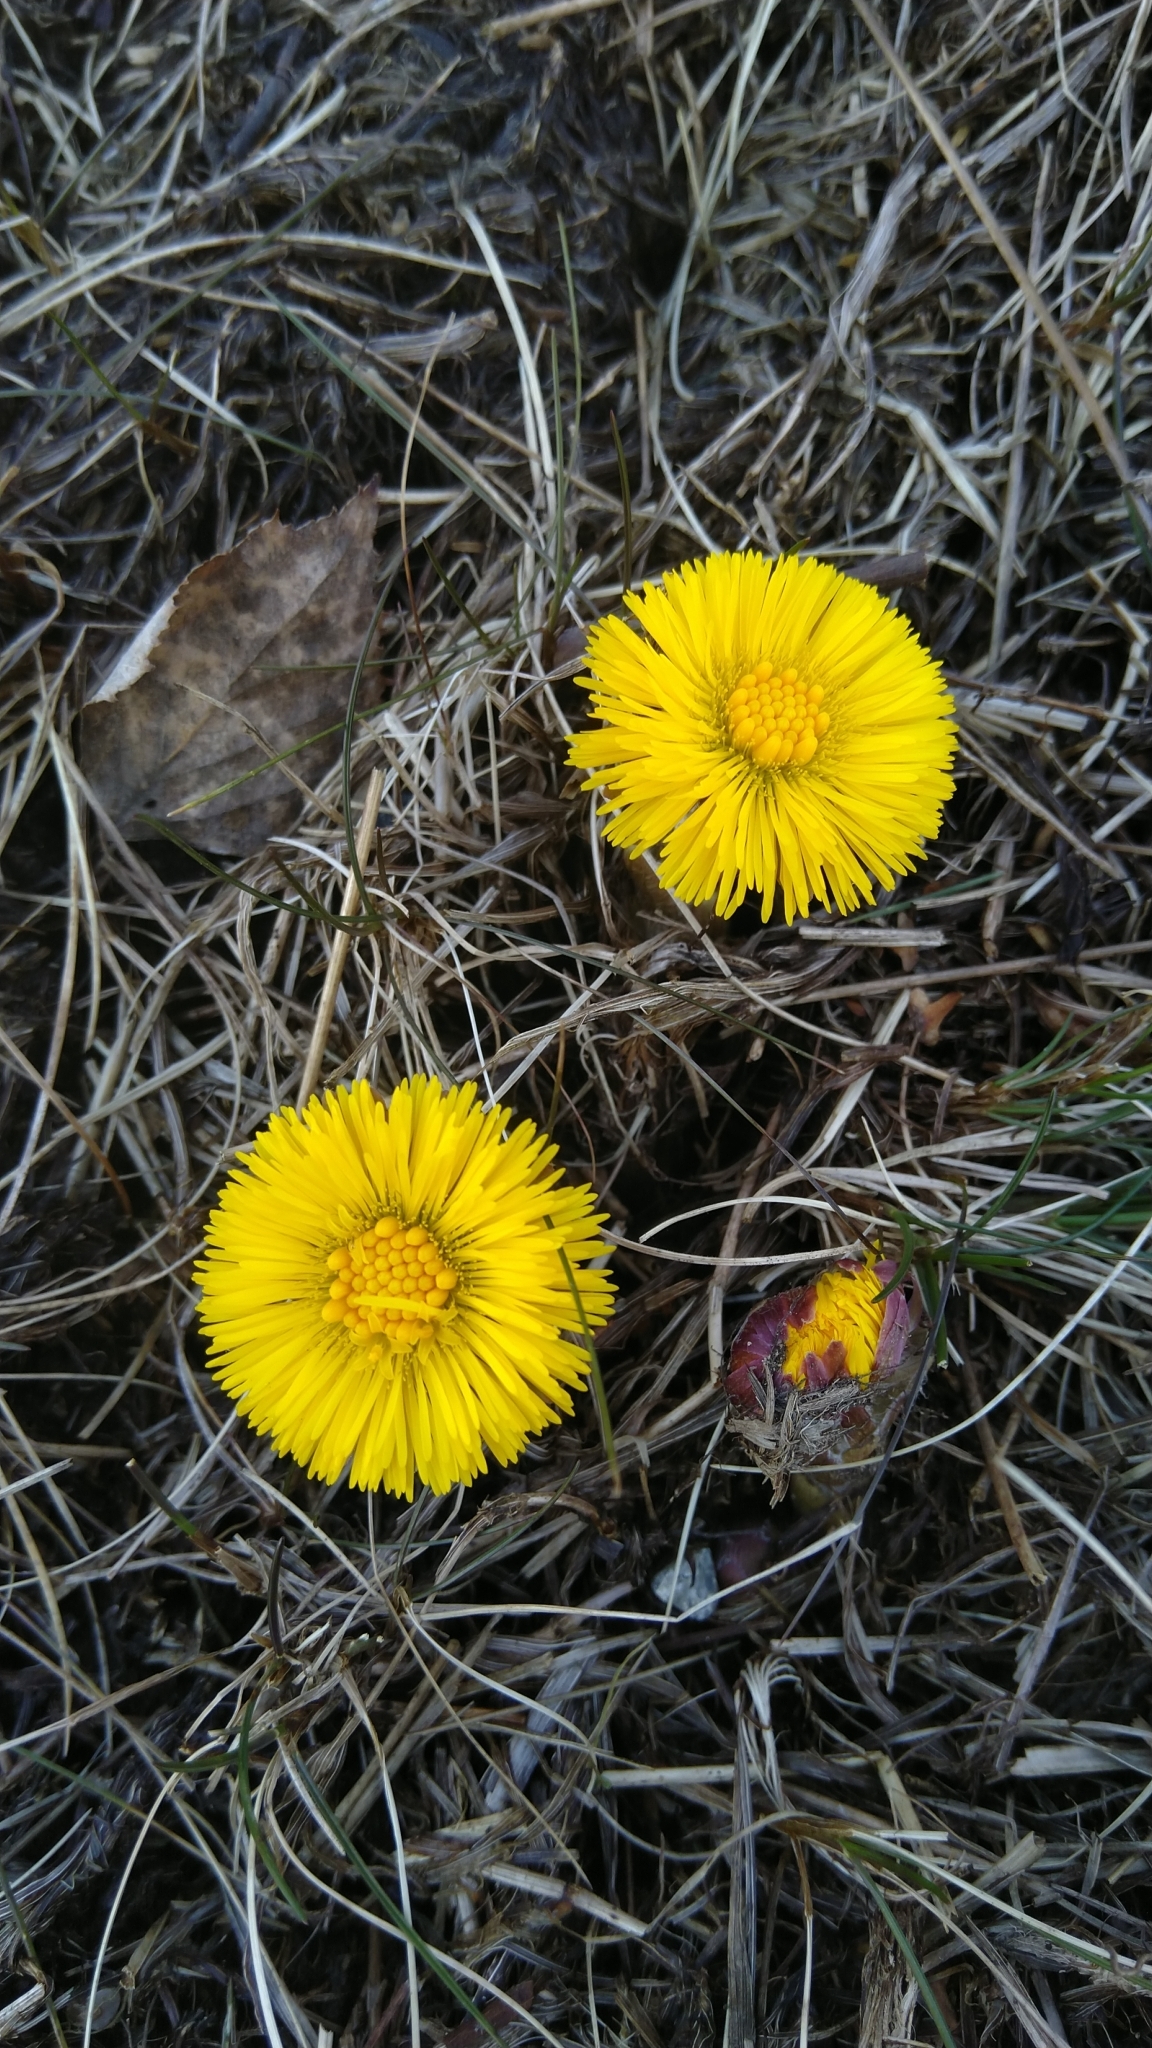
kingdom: Plantae
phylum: Tracheophyta
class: Magnoliopsida
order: Asterales
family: Asteraceae
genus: Tussilago
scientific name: Tussilago farfara
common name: Coltsfoot
